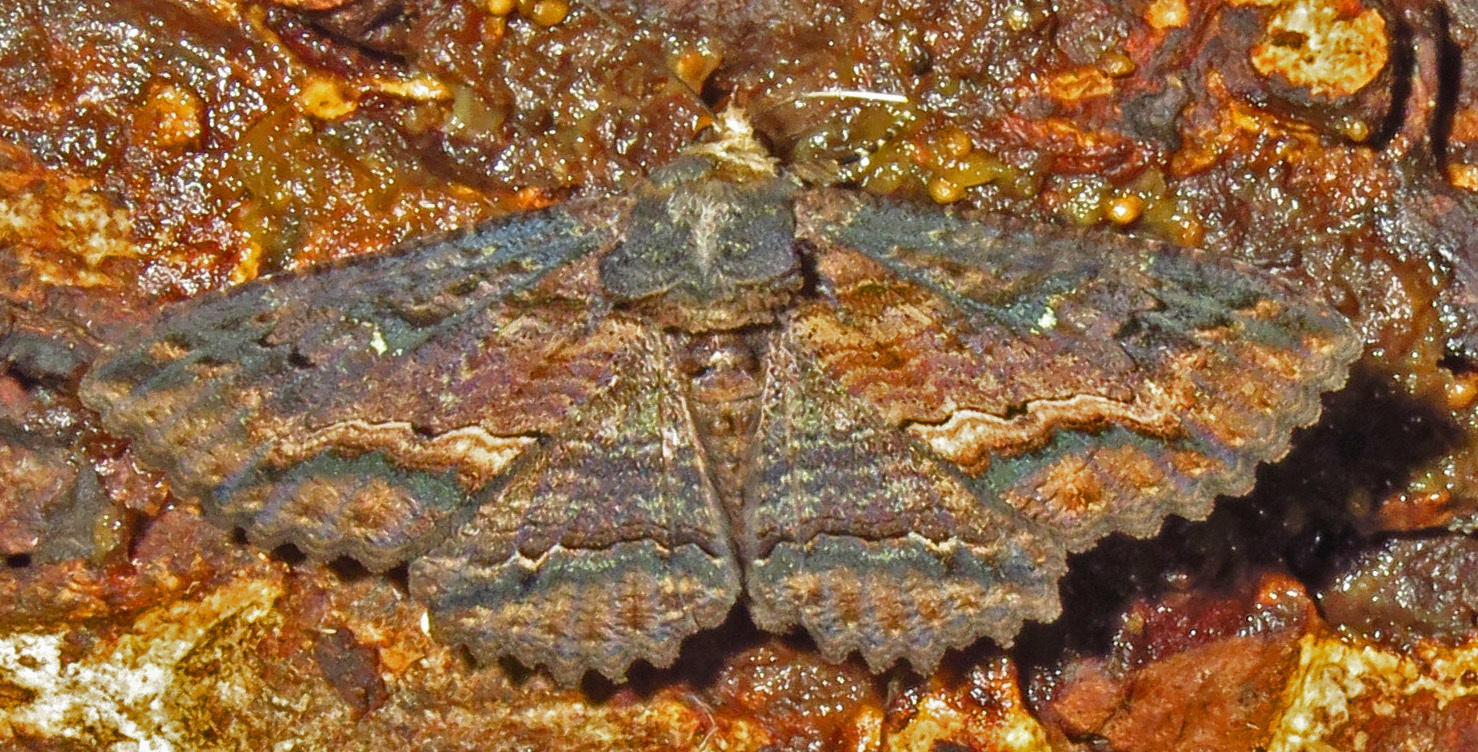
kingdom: Animalia
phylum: Arthropoda
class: Insecta
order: Lepidoptera
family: Erebidae
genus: Zale
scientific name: Zale lunata
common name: Lunate zale moth
